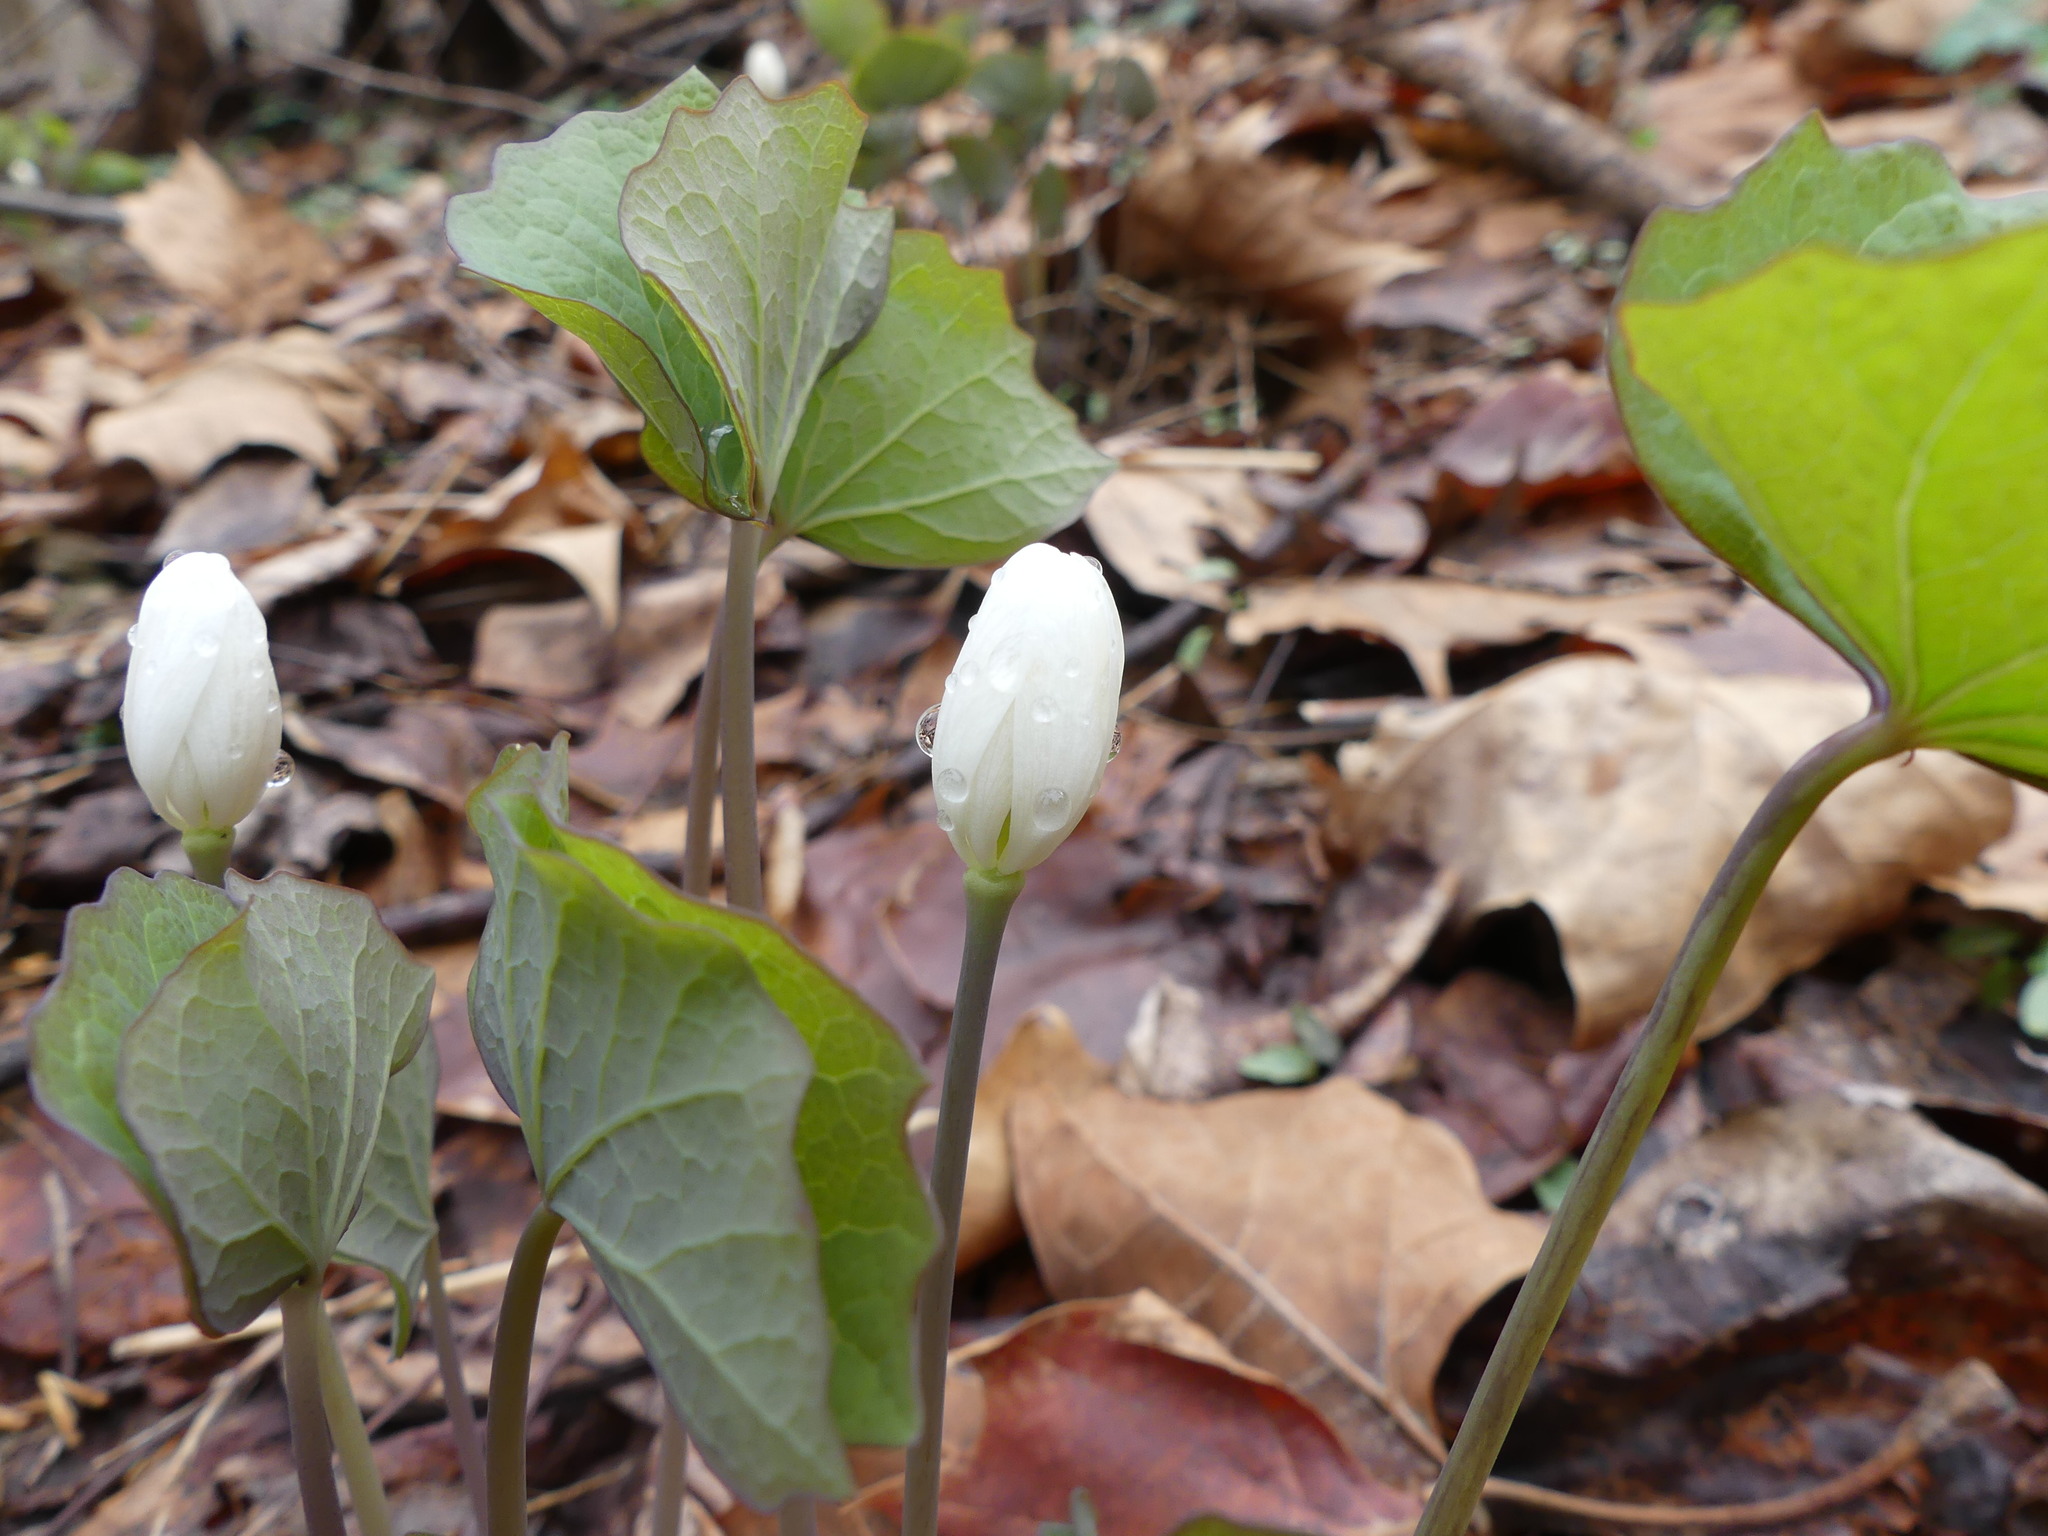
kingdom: Plantae
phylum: Tracheophyta
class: Magnoliopsida
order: Ranunculales
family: Berberidaceae
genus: Jeffersonia
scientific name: Jeffersonia diphylla
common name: Rheumatism-root
